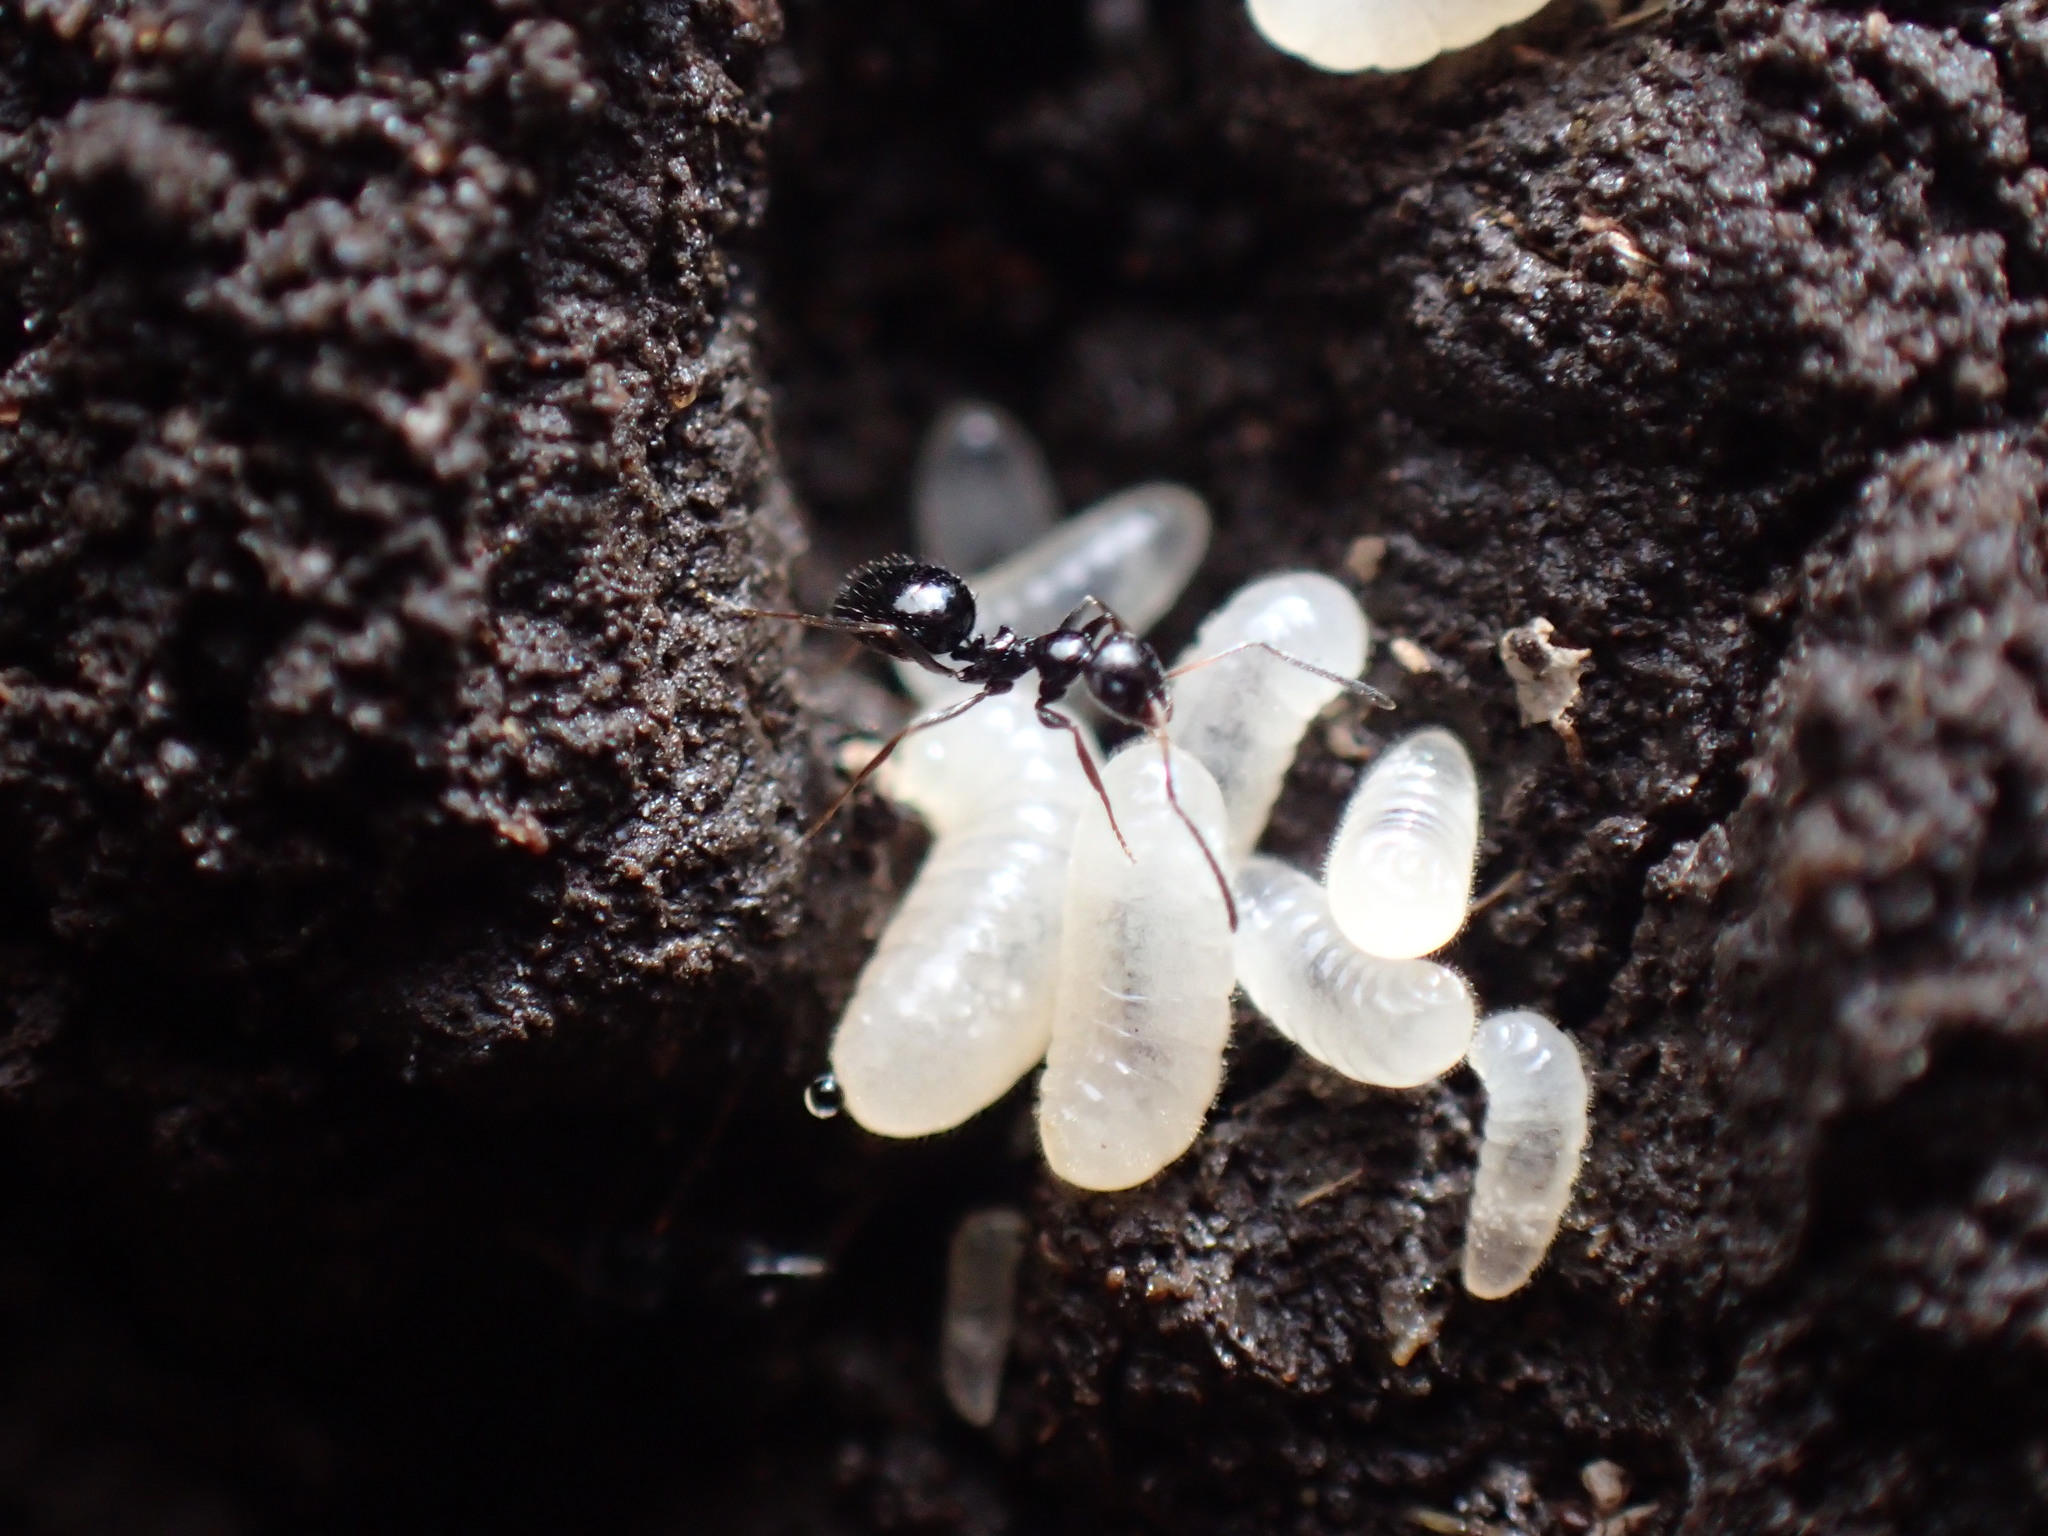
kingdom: Animalia
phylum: Arthropoda
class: Insecta
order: Hymenoptera
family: Formicidae
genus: Lepisiota
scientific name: Lepisiota capensis
